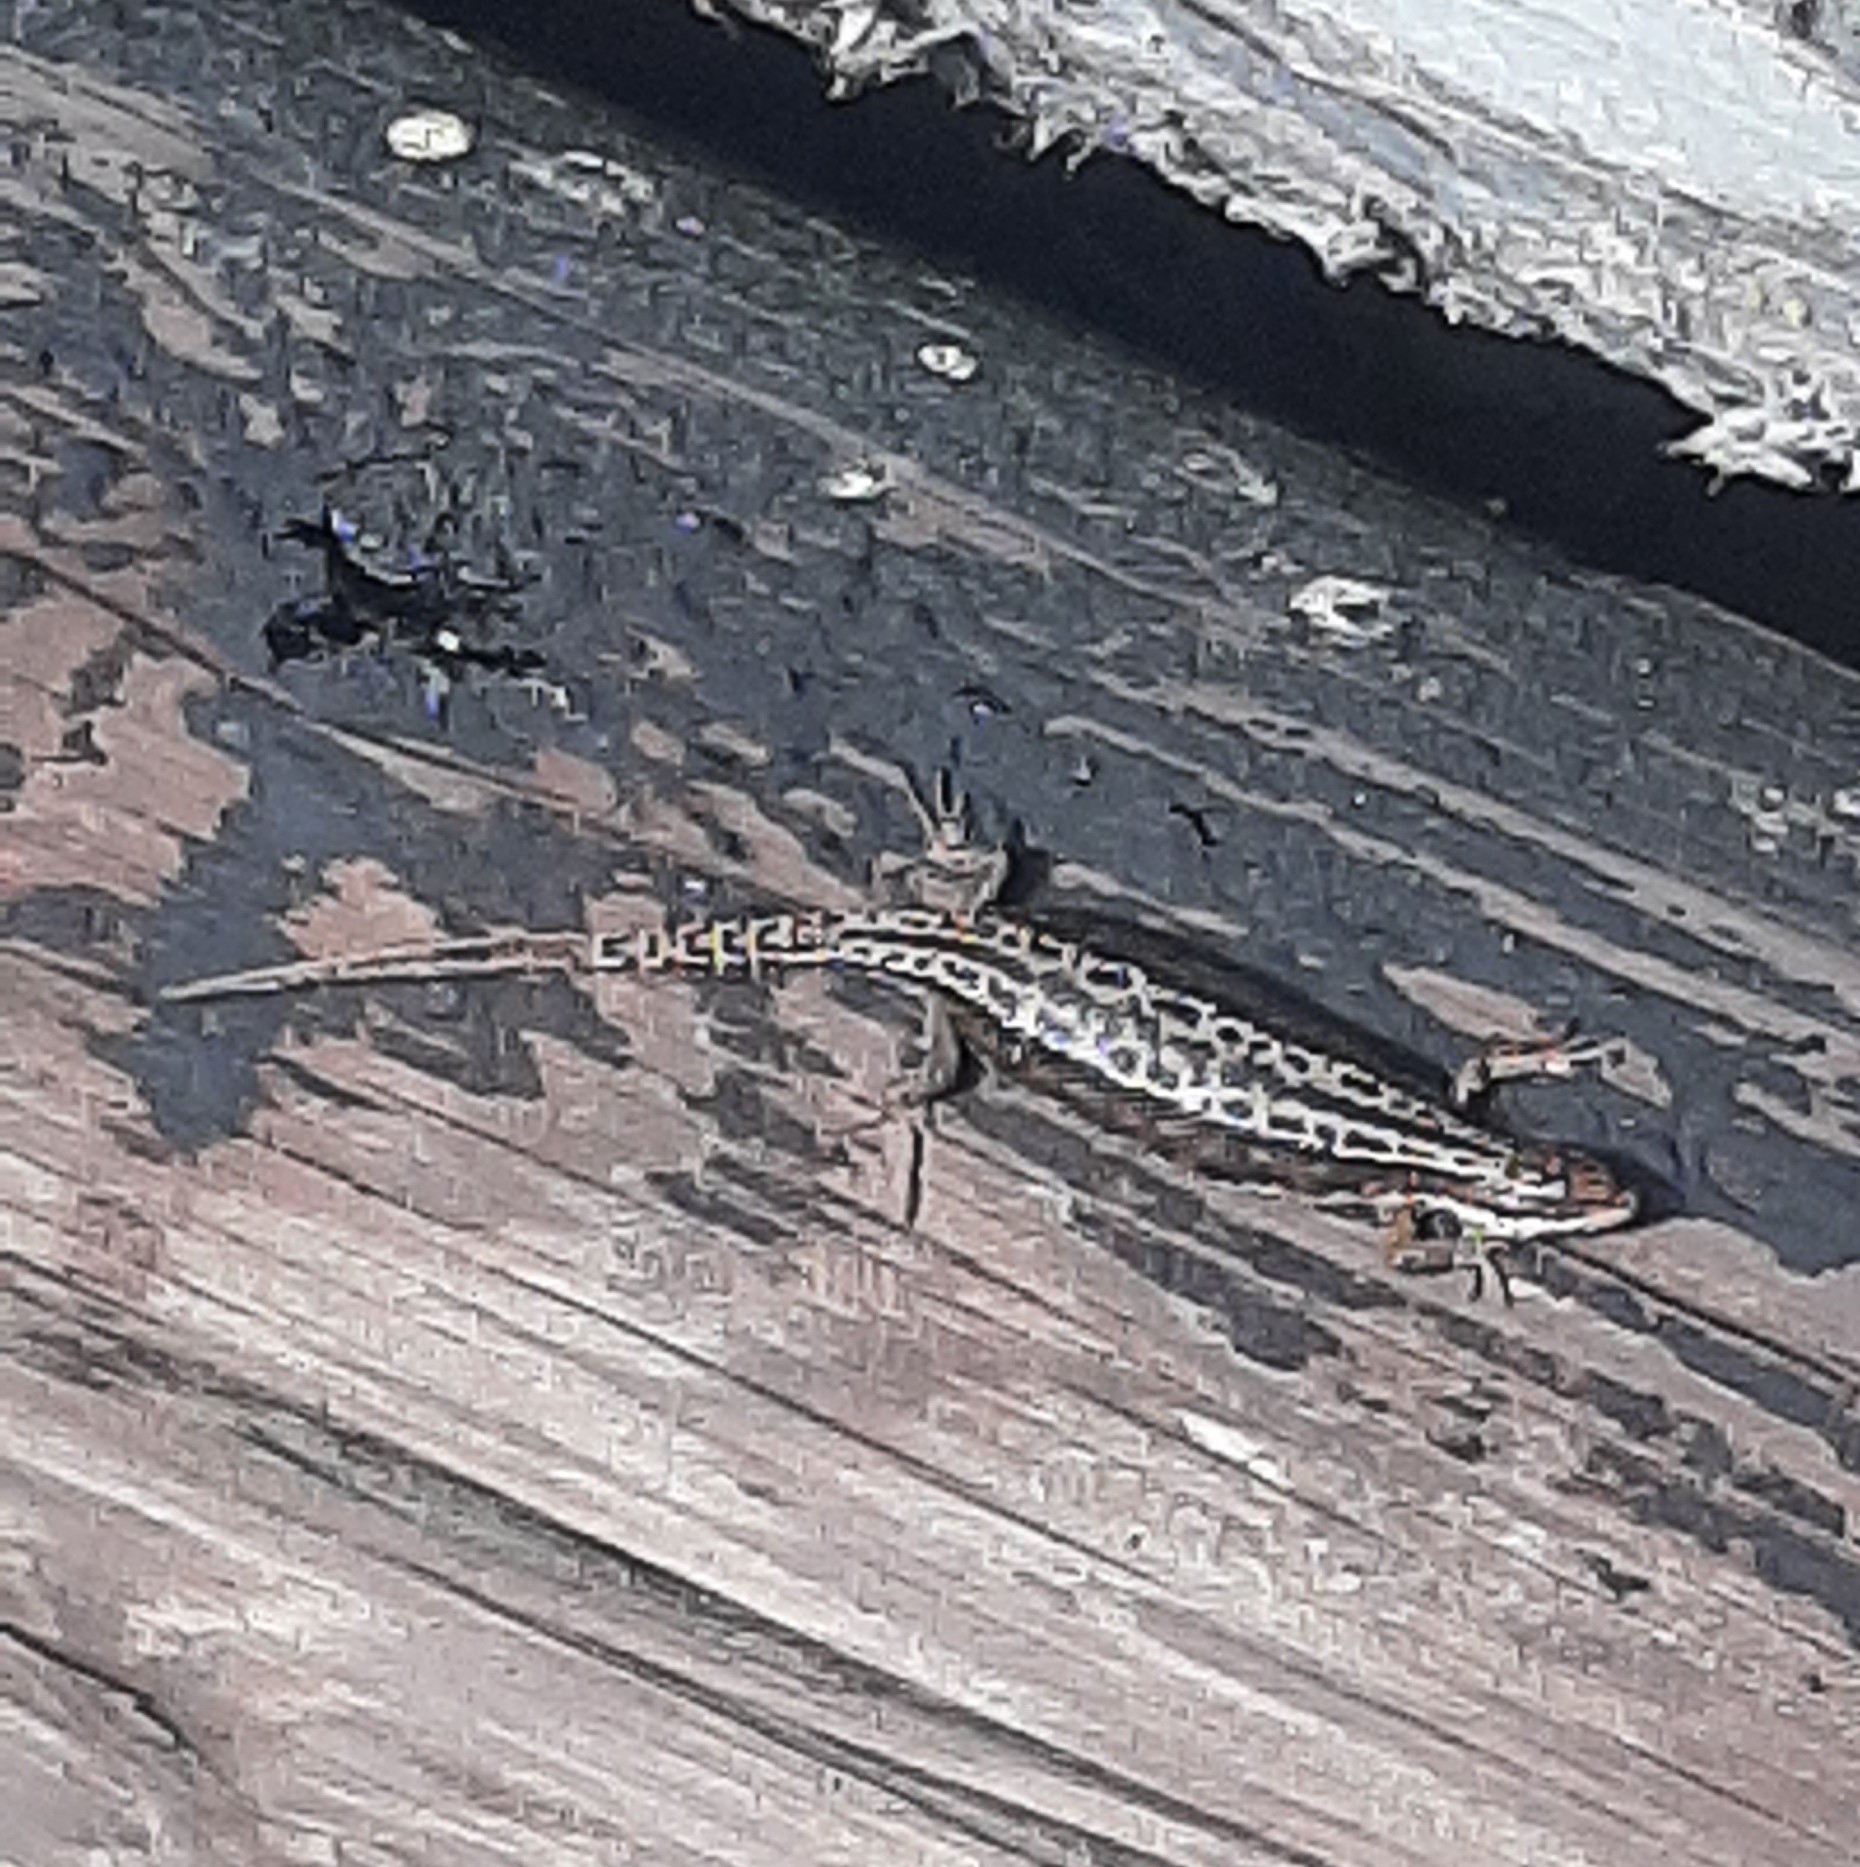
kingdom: Animalia
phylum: Chordata
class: Squamata
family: Lacertidae
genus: Zootoca
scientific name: Zootoca vivipara
